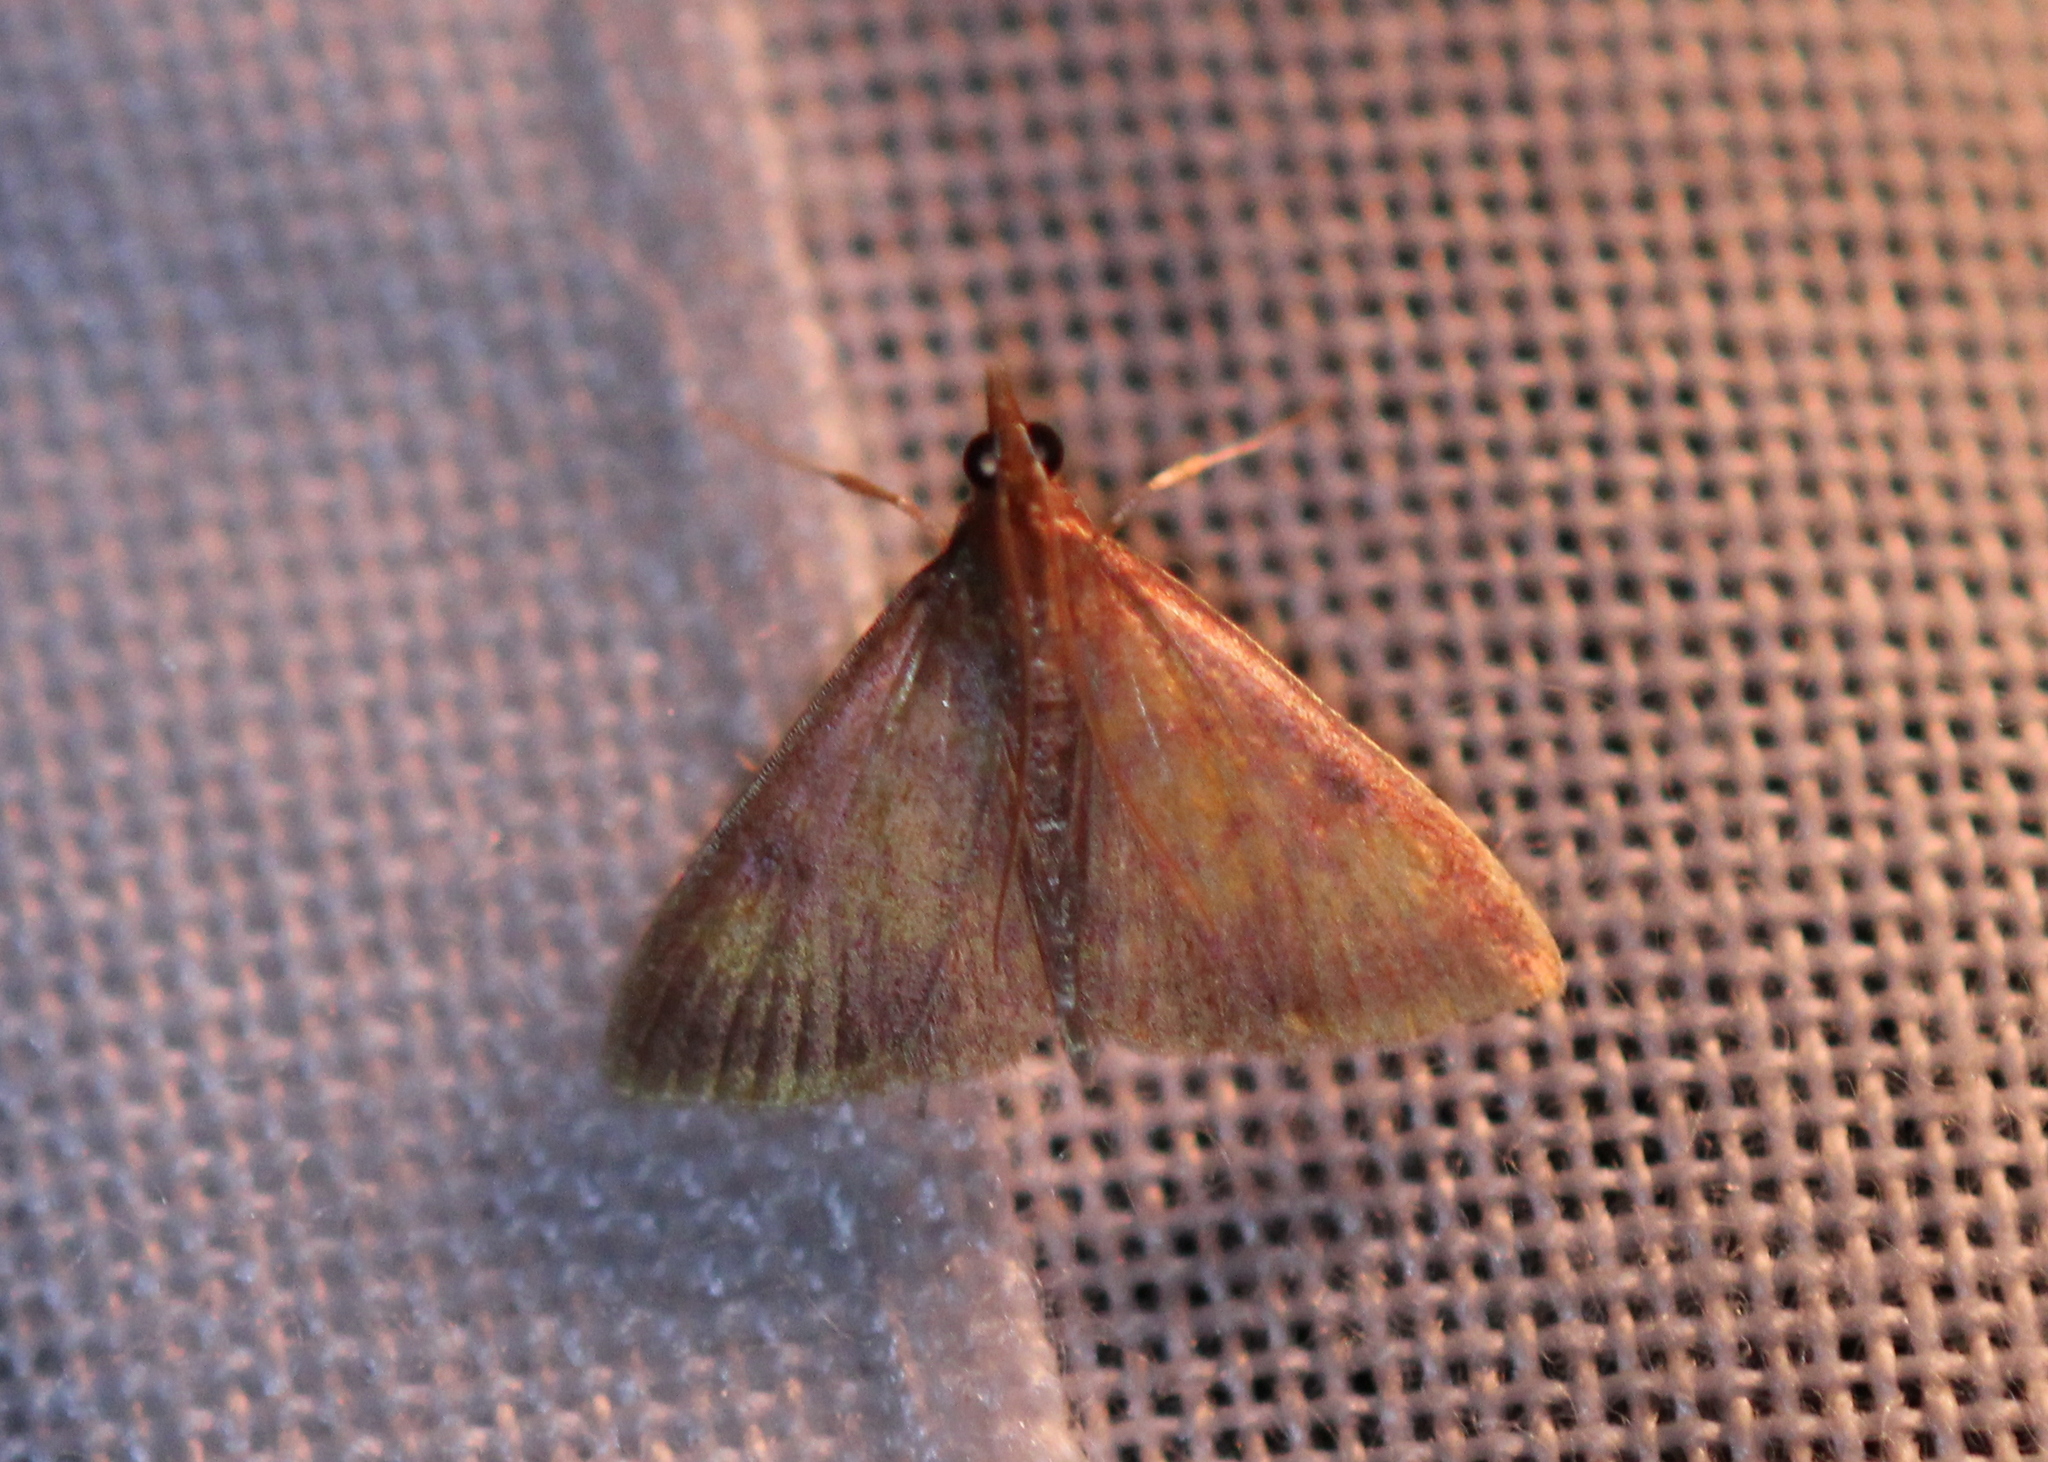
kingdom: Animalia
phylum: Arthropoda
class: Insecta
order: Lepidoptera
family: Crambidae
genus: Pyrausta
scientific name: Pyrausta acrionalis
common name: Mint-loving pyrausta moth
